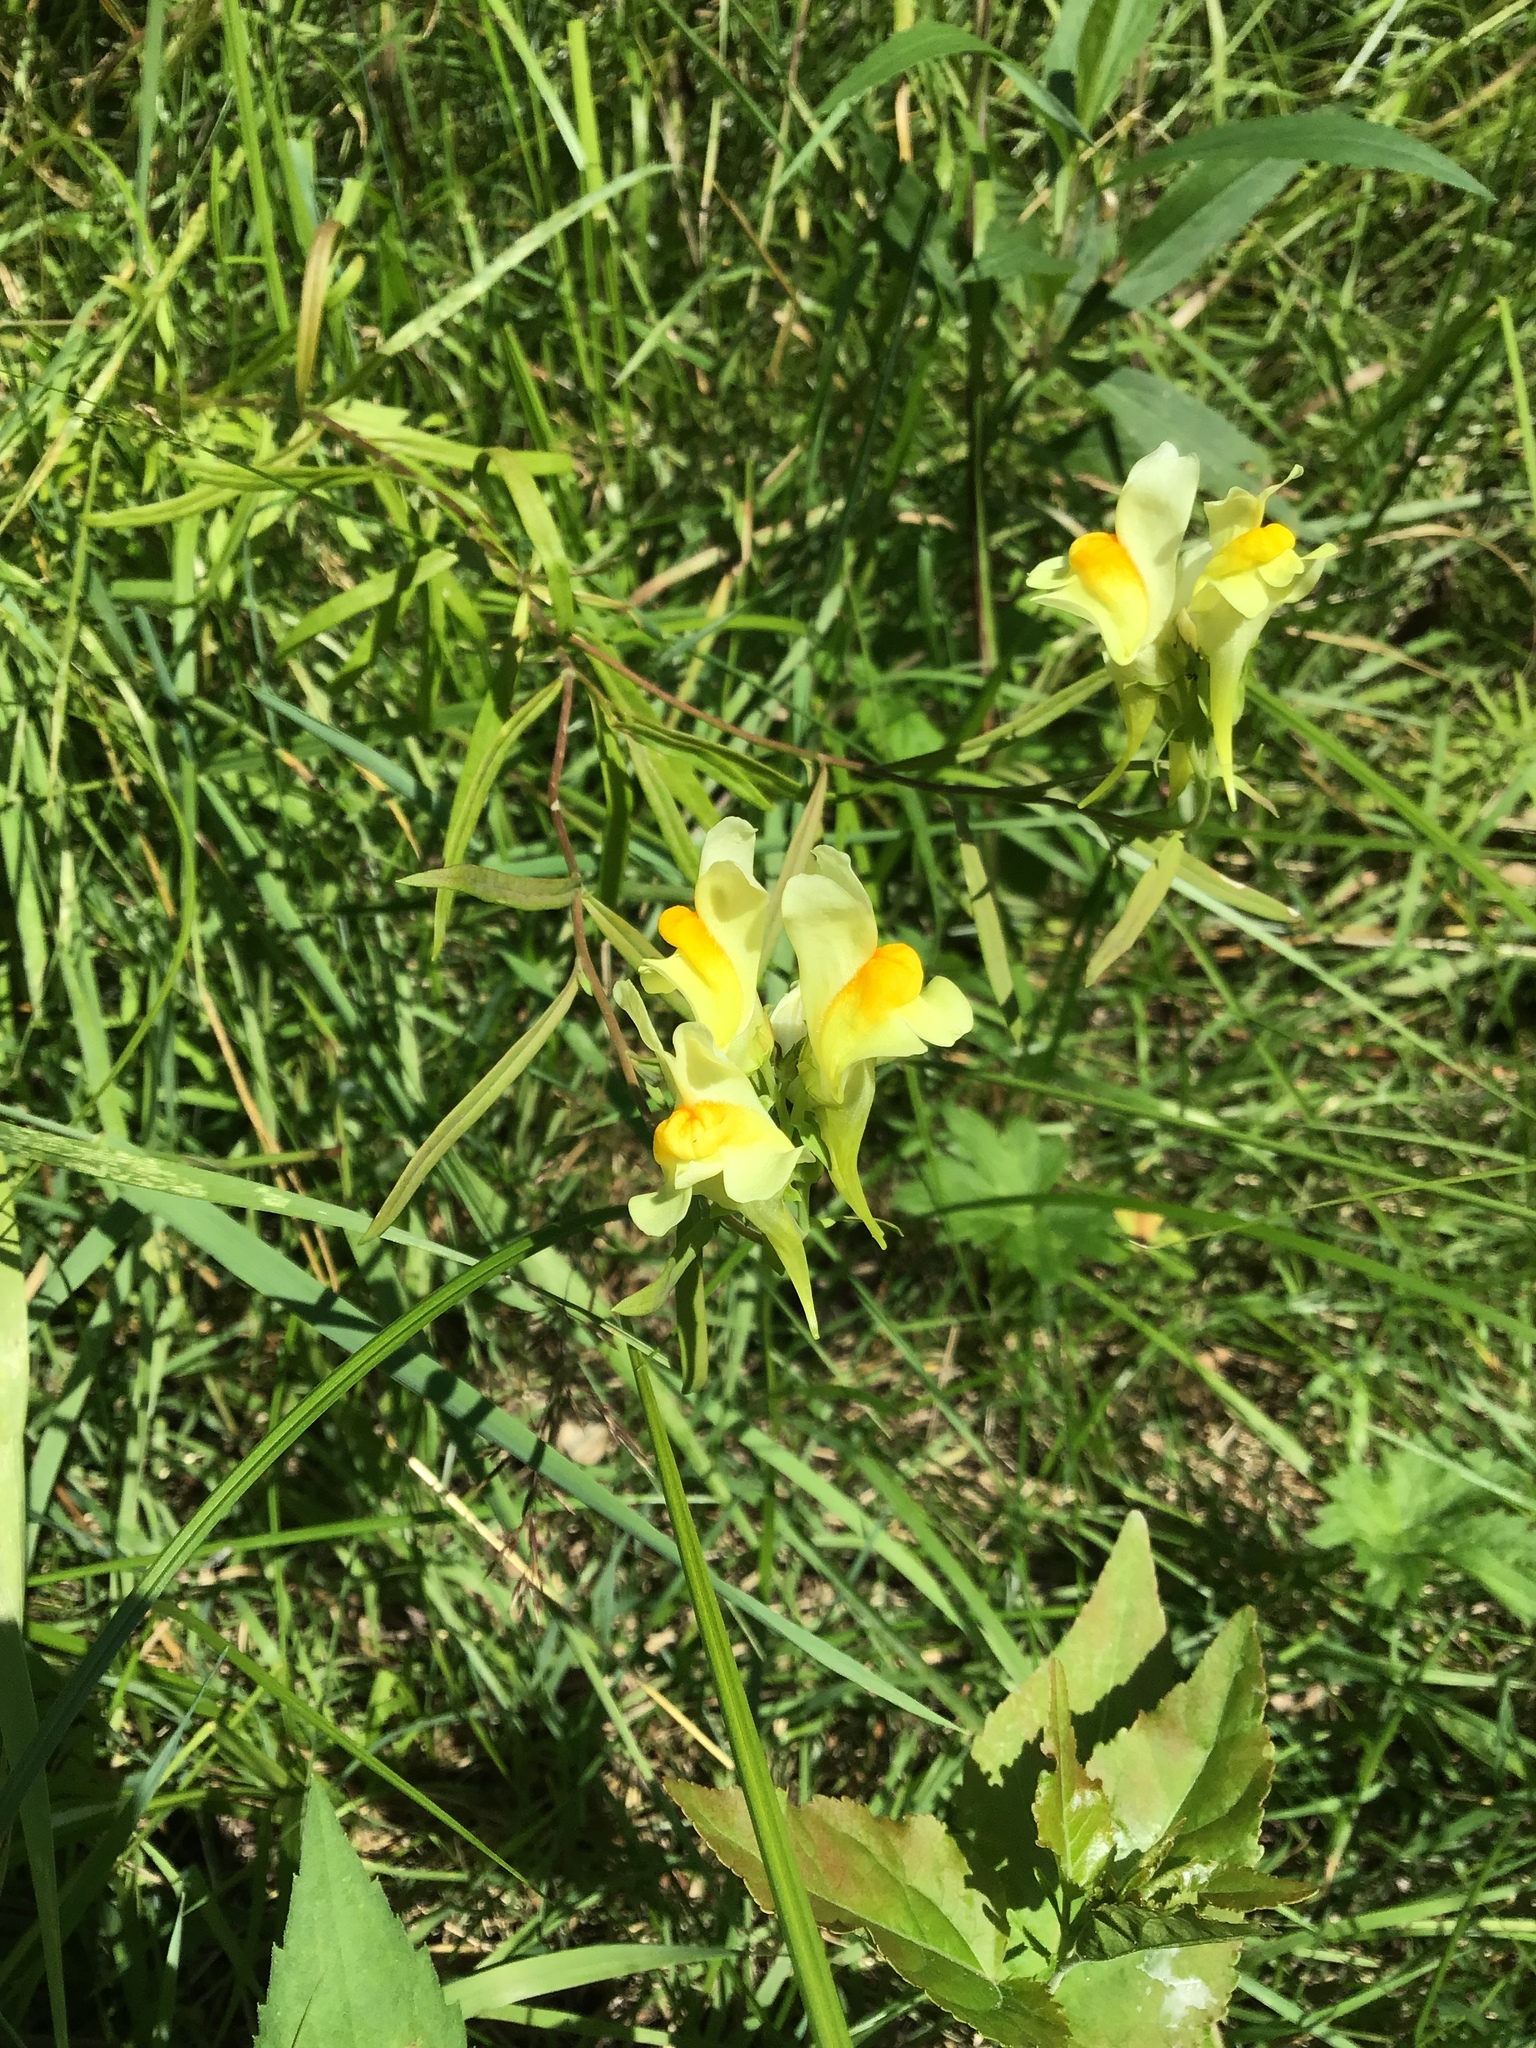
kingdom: Plantae
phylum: Tracheophyta
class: Magnoliopsida
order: Lamiales
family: Plantaginaceae
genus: Linaria
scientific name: Linaria vulgaris
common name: Butter and eggs
